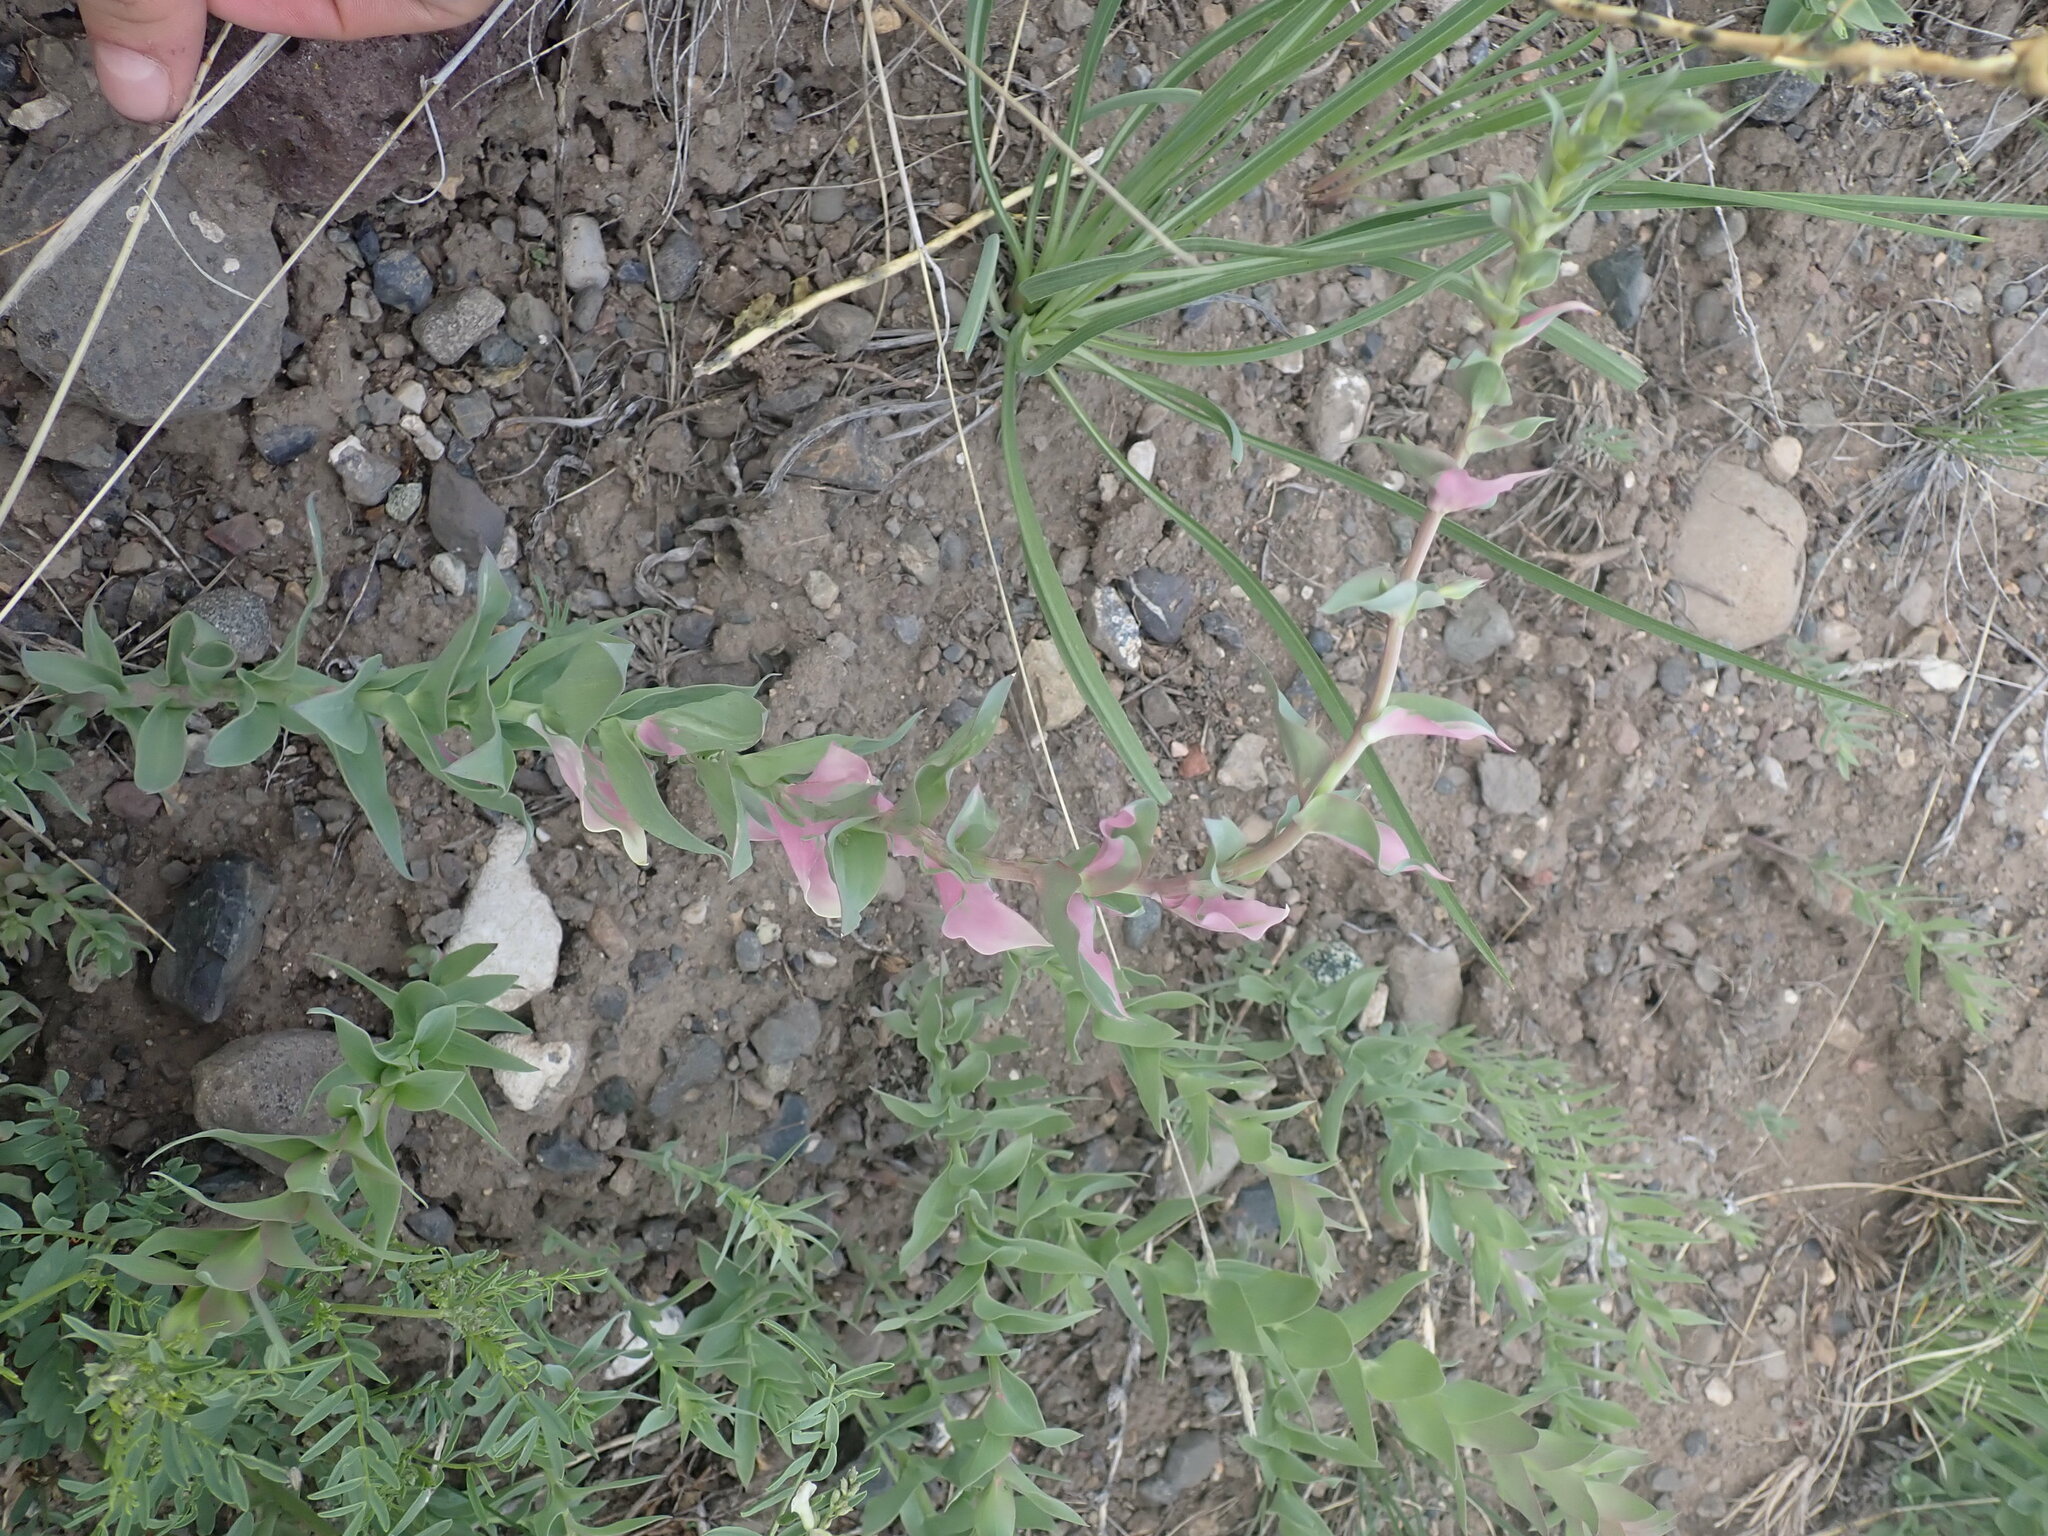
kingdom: Plantae
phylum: Tracheophyta
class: Magnoliopsida
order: Lamiales
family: Plantaginaceae
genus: Linaria
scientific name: Linaria dalmatica
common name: Dalmatian toadflax
